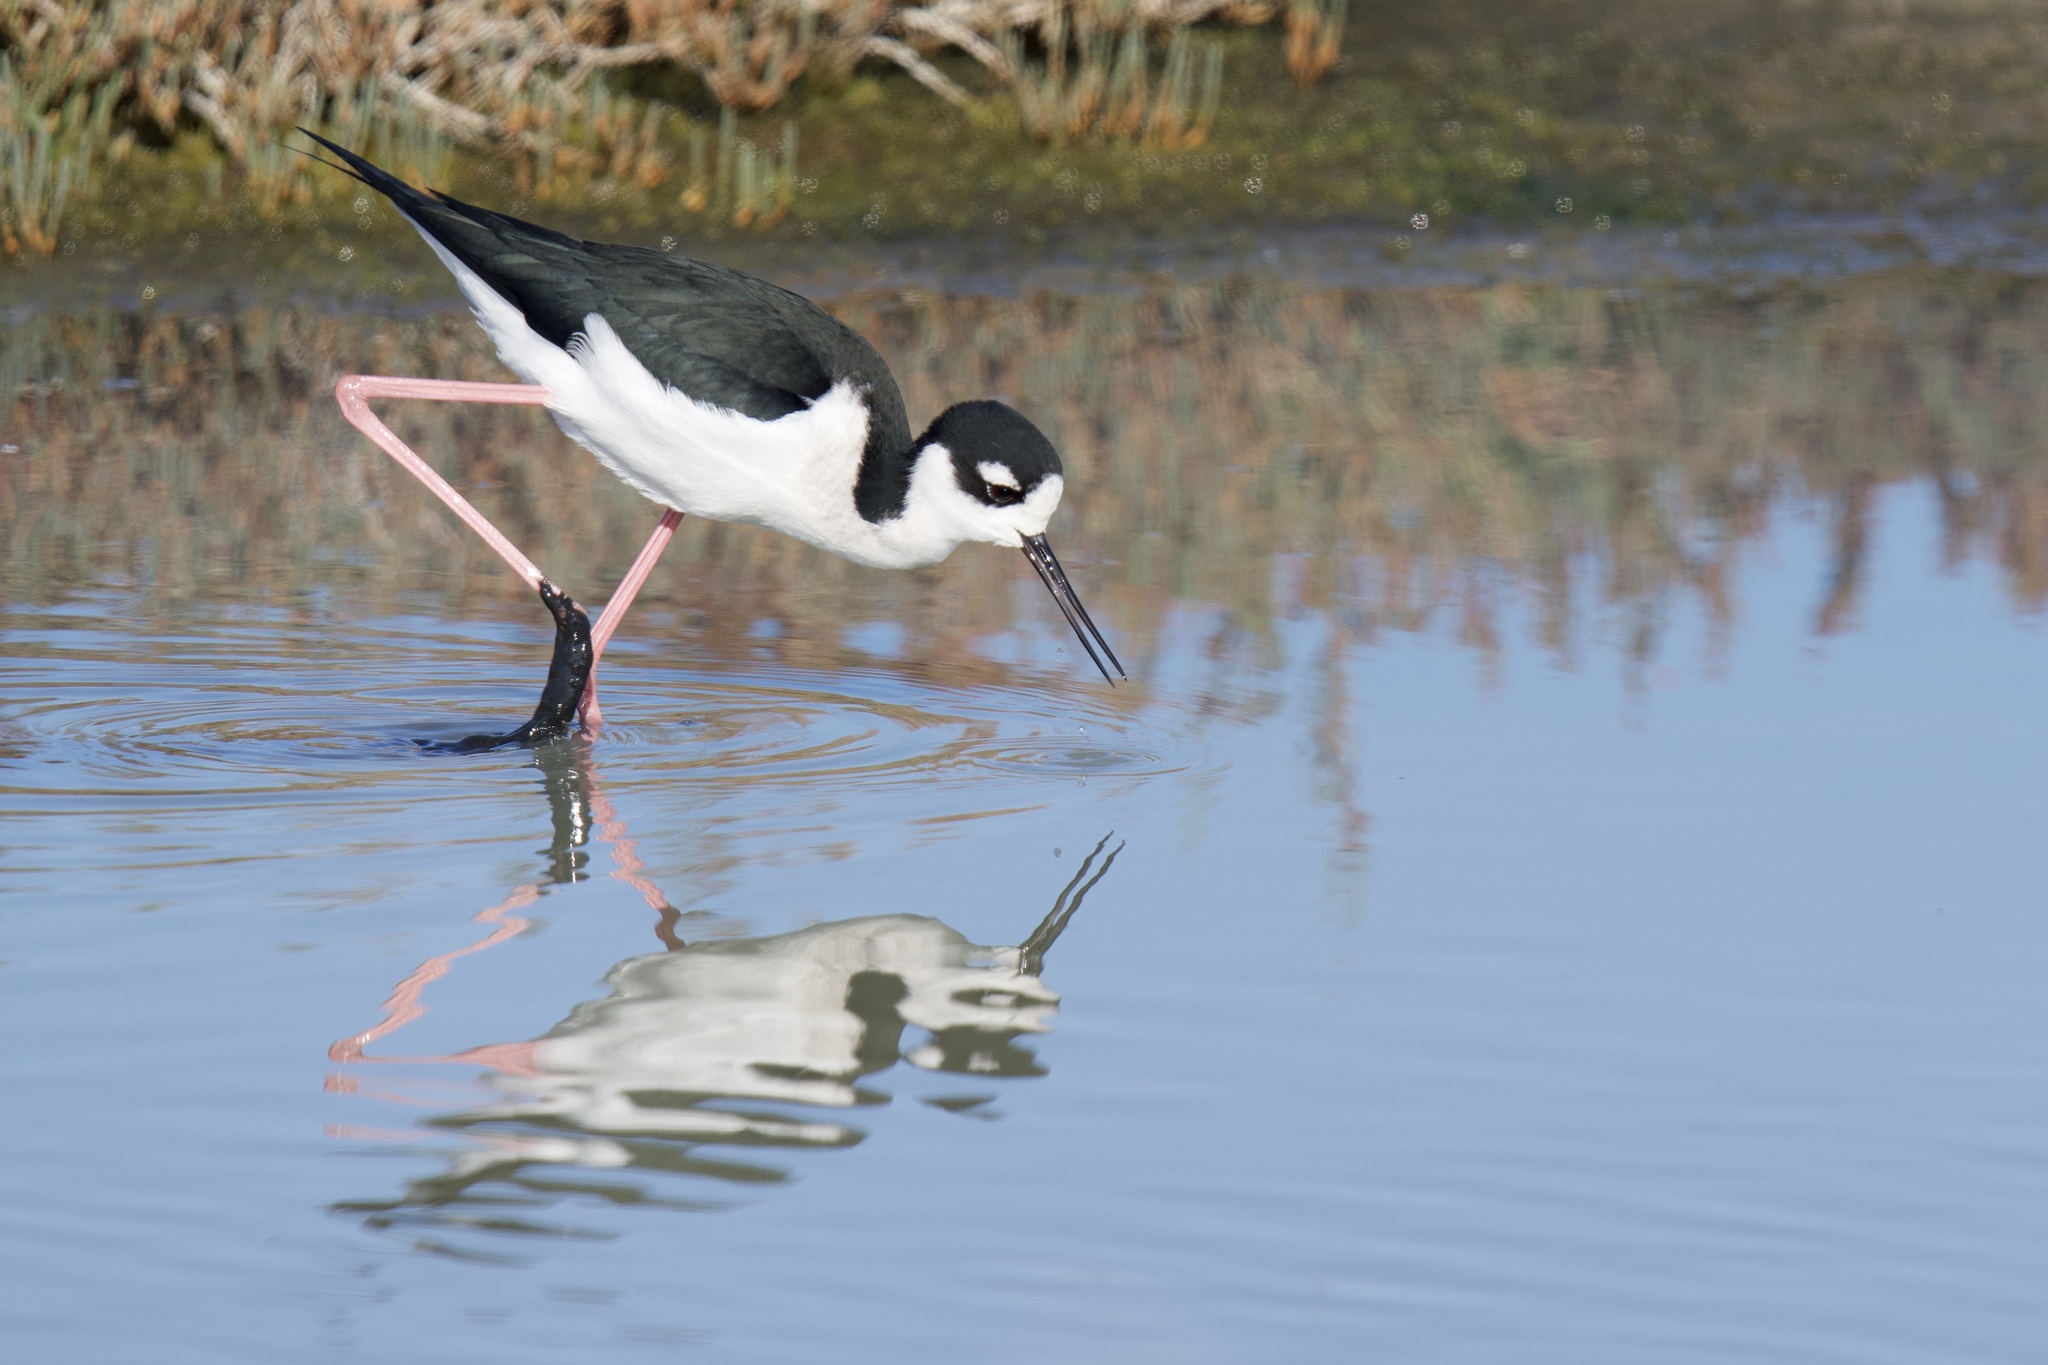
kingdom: Animalia
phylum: Chordata
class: Aves
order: Charadriiformes
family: Recurvirostridae
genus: Himantopus
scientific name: Himantopus mexicanus
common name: Black-necked stilt
